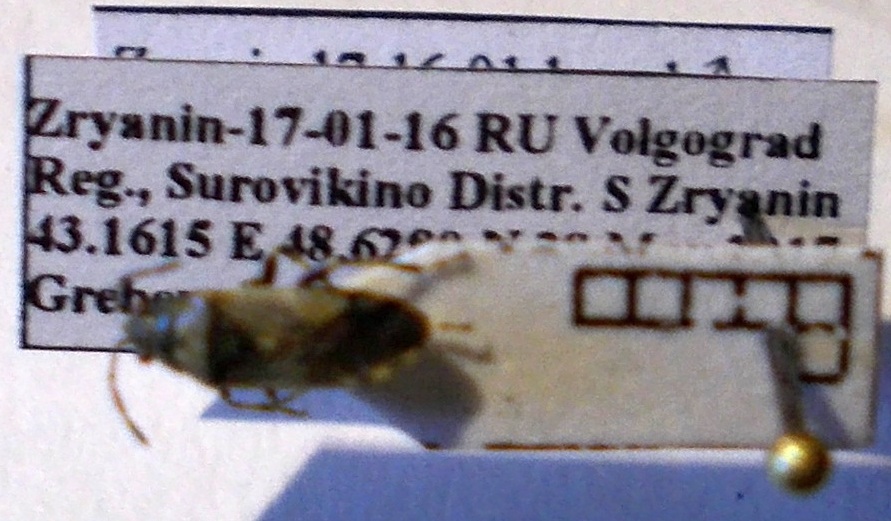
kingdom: Animalia
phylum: Arthropoda
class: Insecta
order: Hemiptera
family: Heterogastridae
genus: Heterogaster
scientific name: Heterogaster cathariae
